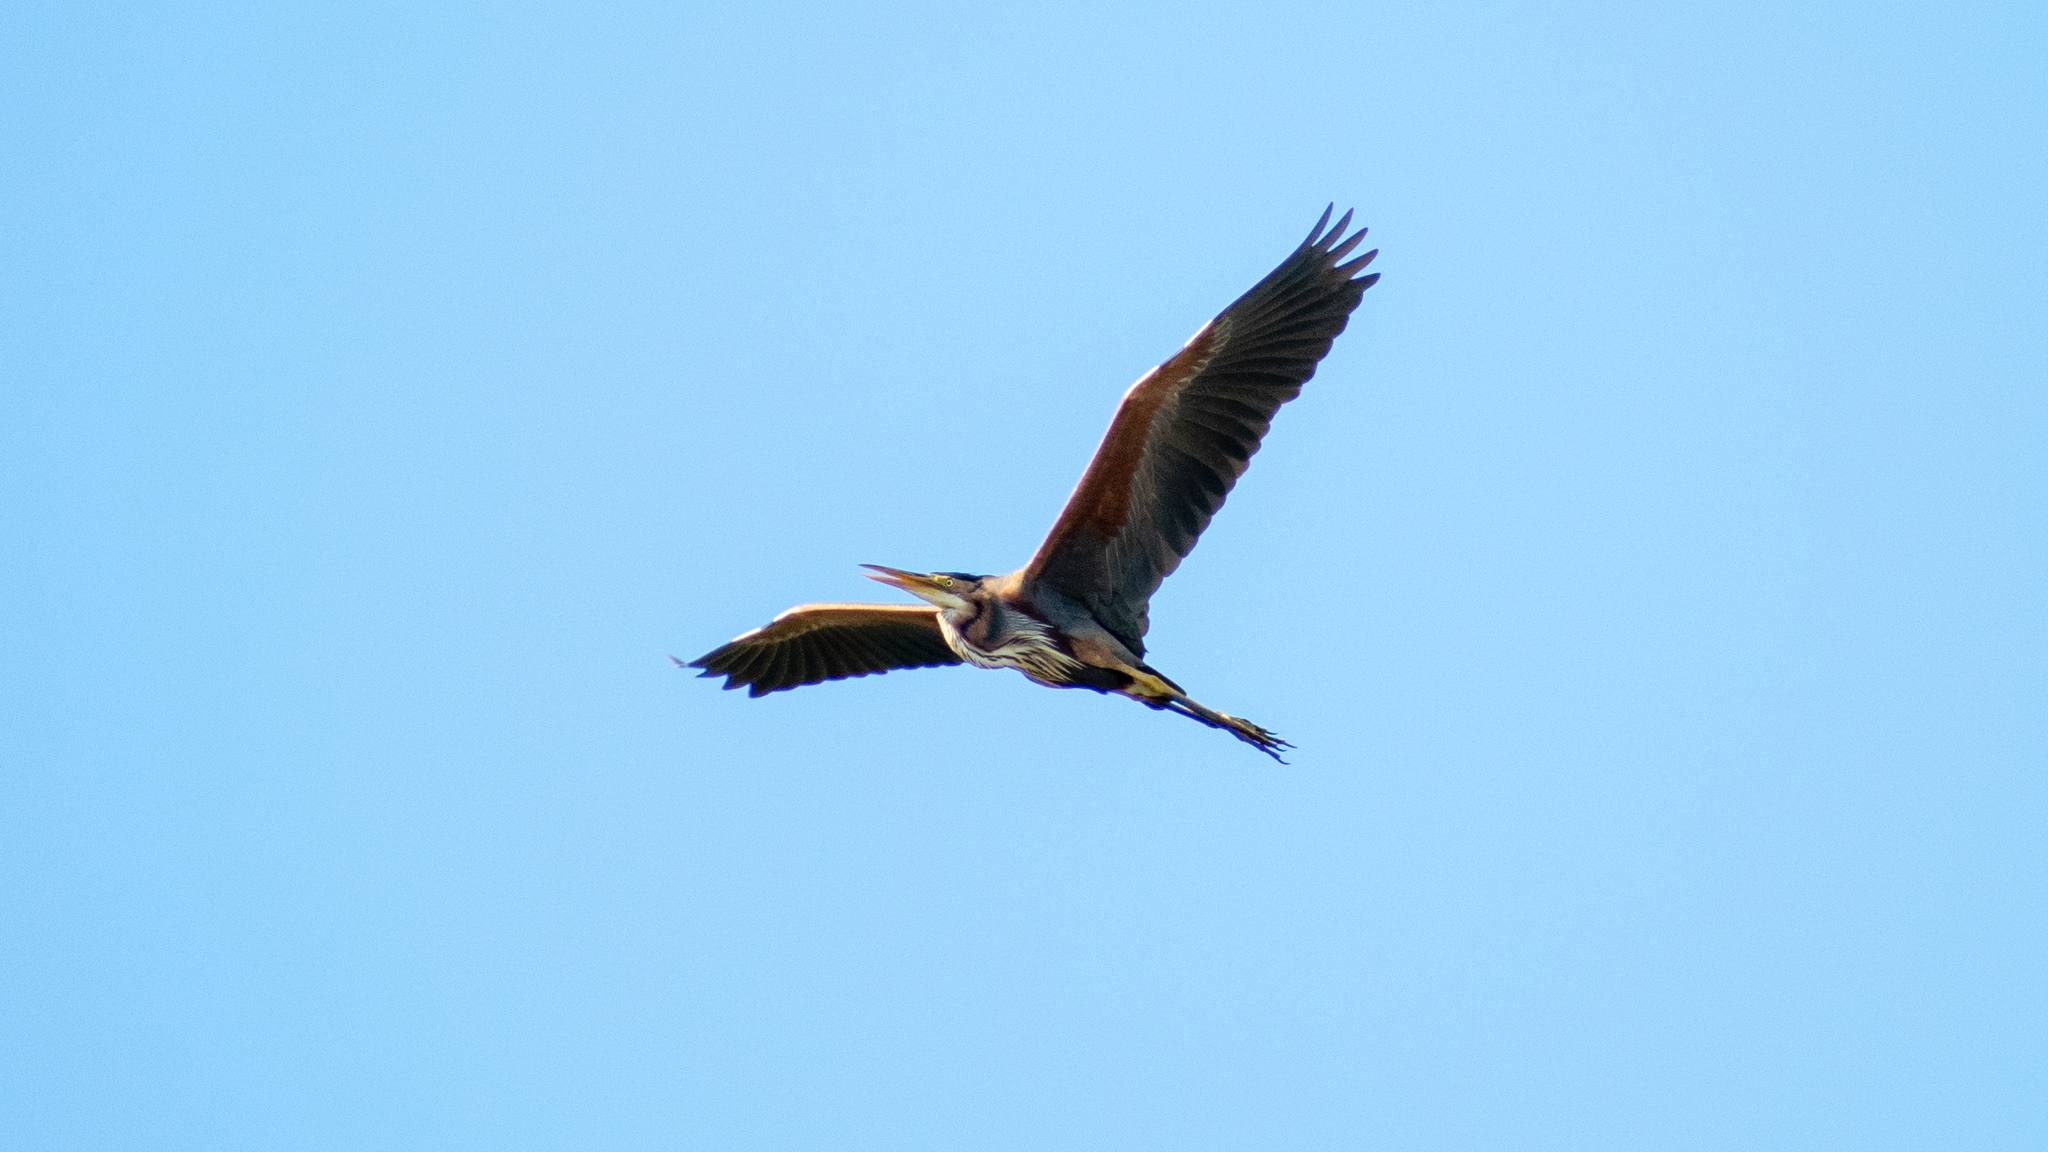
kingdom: Animalia
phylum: Chordata
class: Aves
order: Pelecaniformes
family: Ardeidae
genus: Ardea
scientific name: Ardea purpurea
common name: Purple heron
